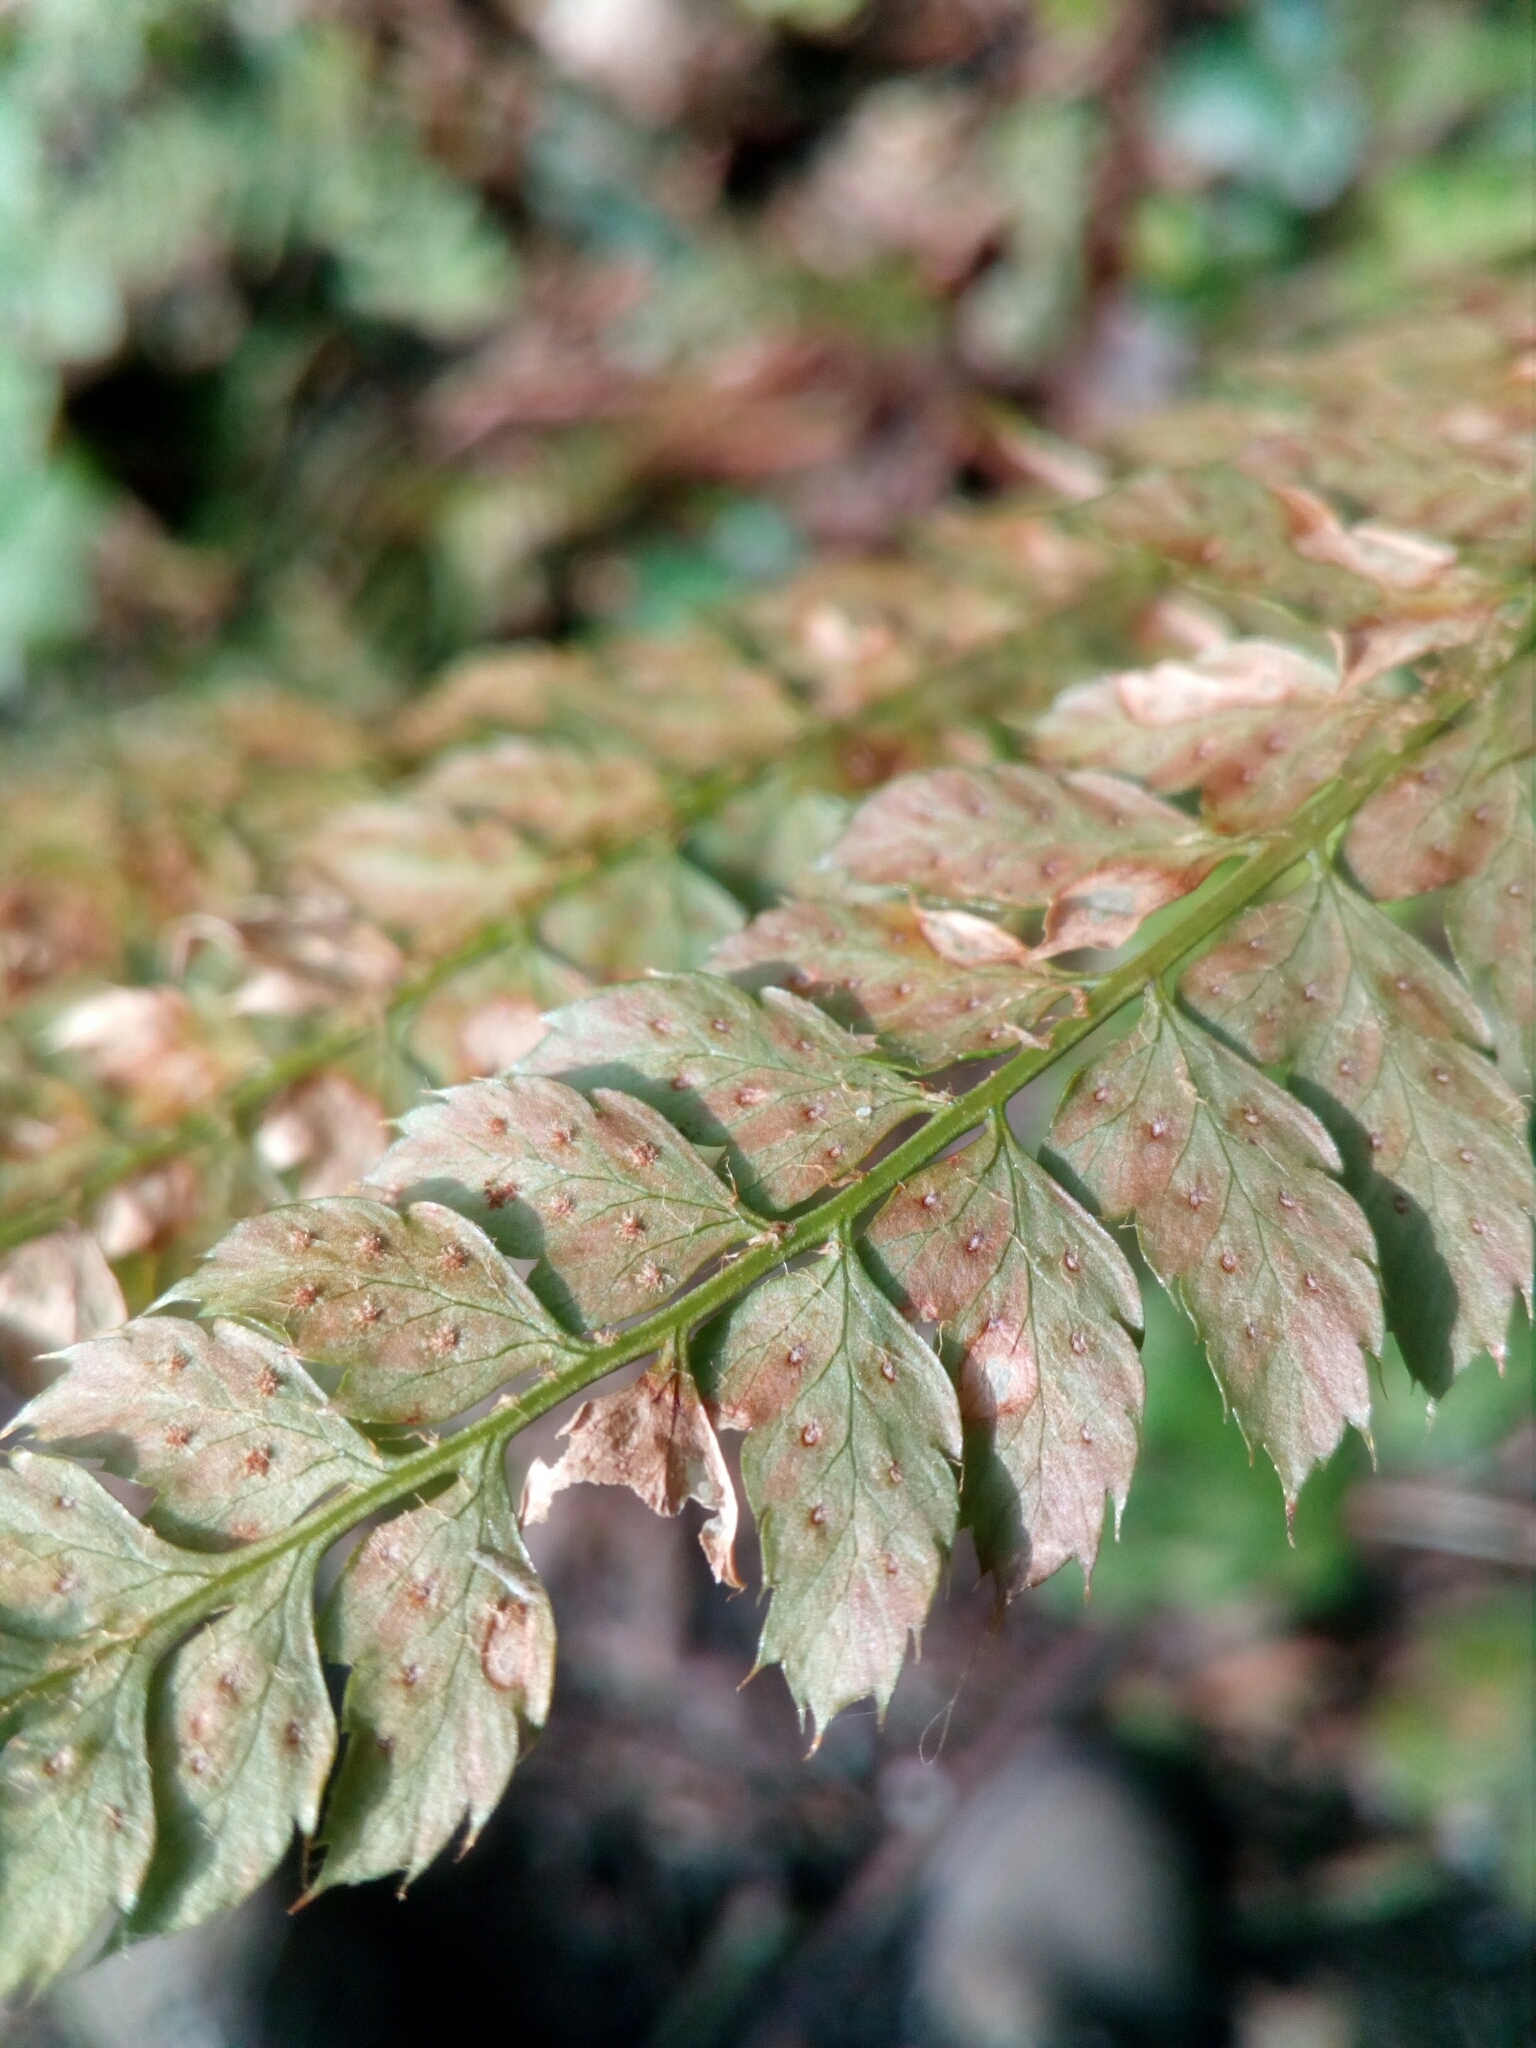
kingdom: Plantae
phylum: Tracheophyta
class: Polypodiopsida
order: Polypodiales
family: Dryopteridaceae
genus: Polystichum
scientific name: Polystichum setiferum
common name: Soft shield-fern
